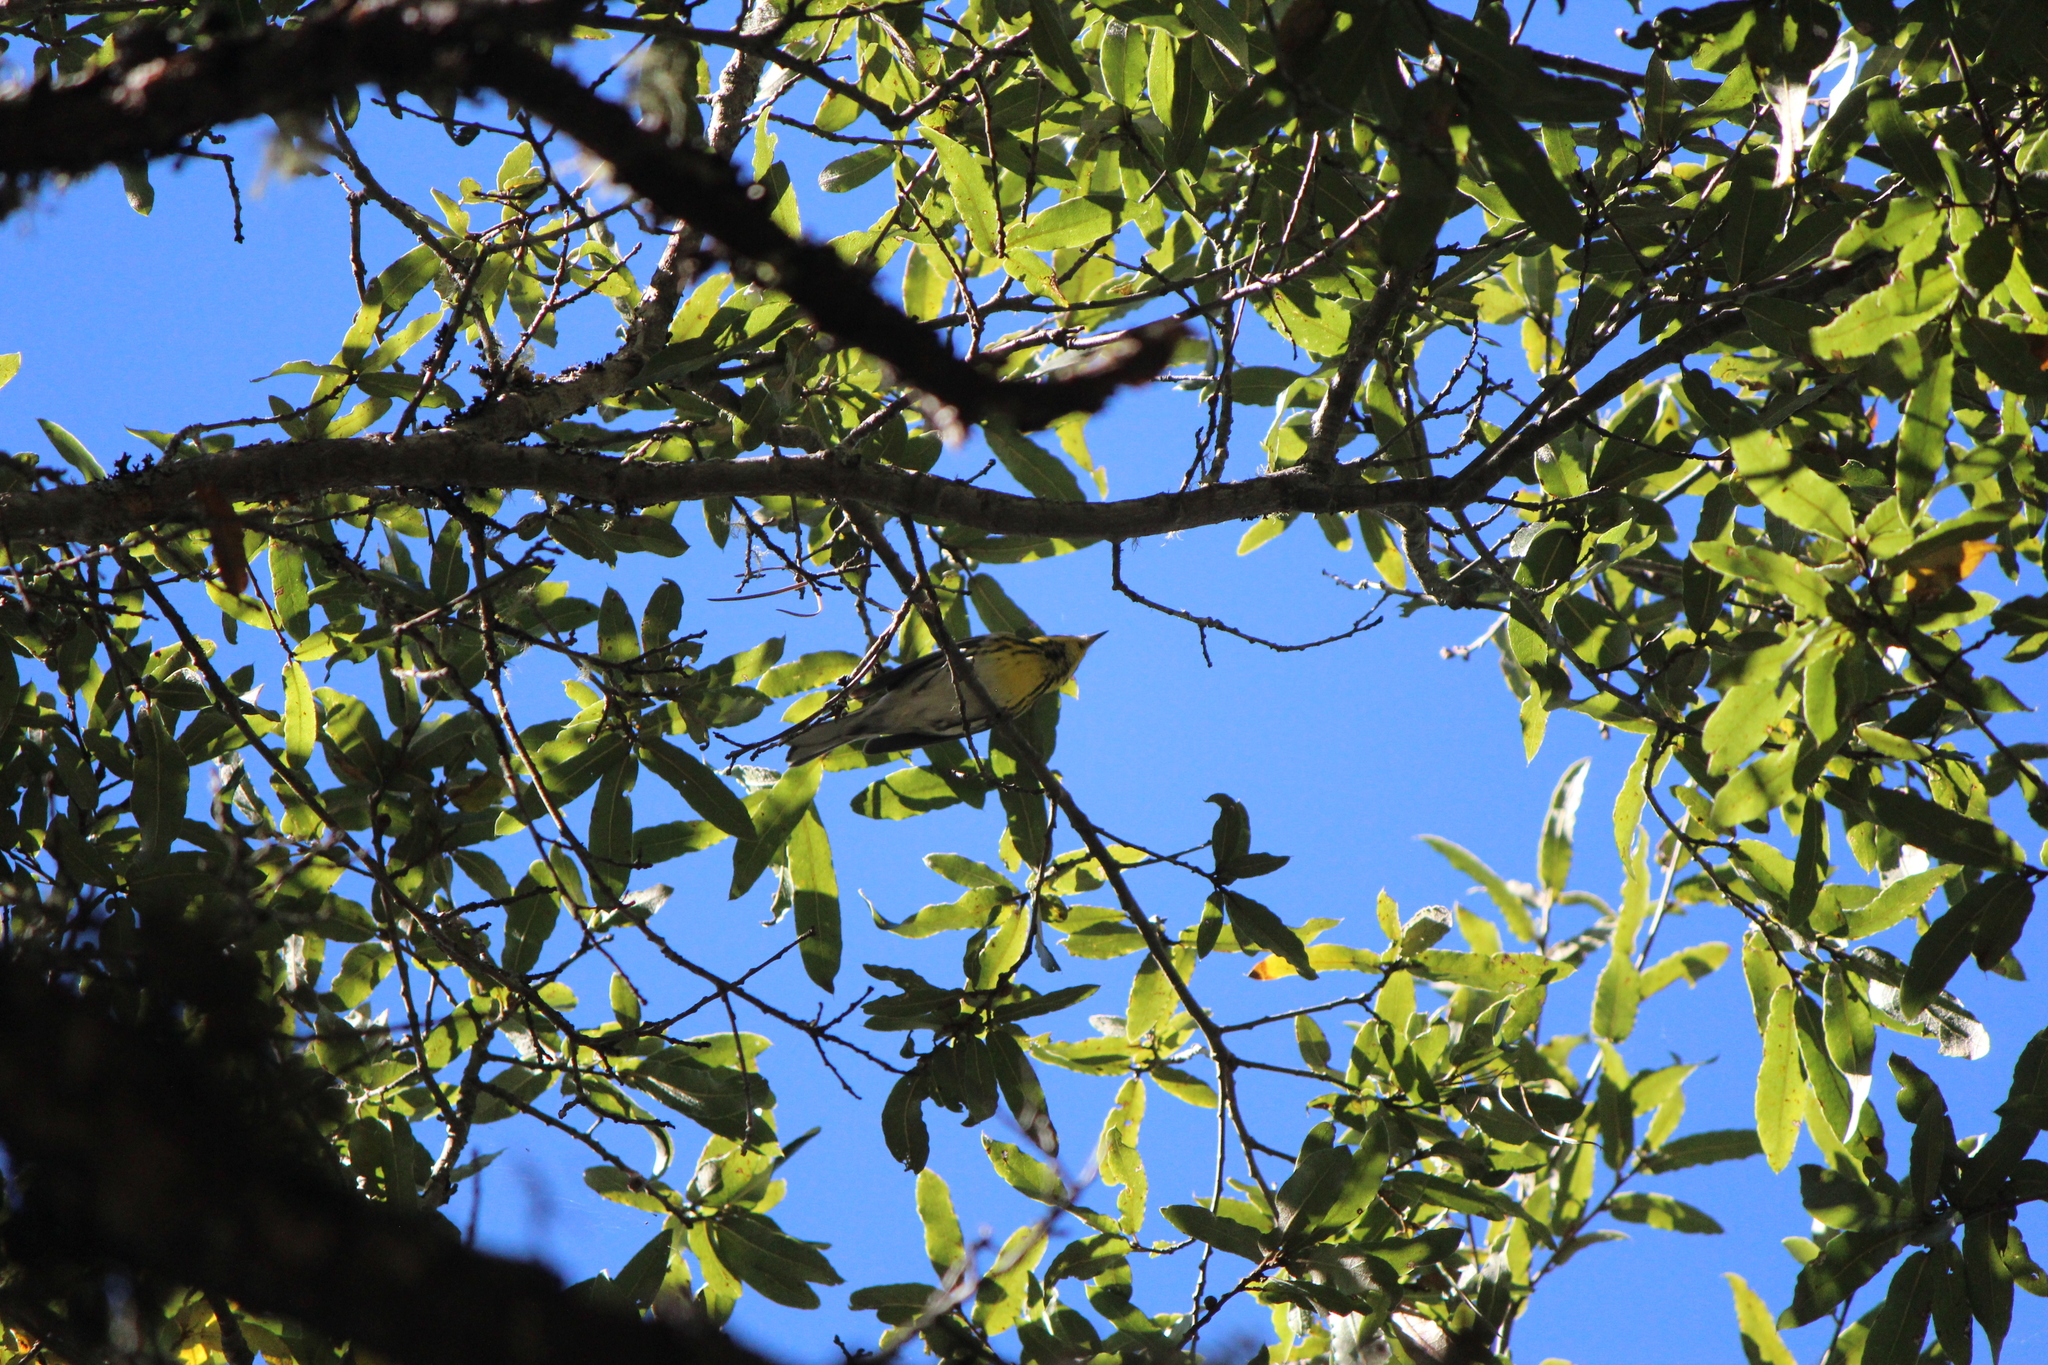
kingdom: Animalia
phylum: Chordata
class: Aves
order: Passeriformes
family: Parulidae
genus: Setophaga
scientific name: Setophaga townsendi
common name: Townsend's warbler
